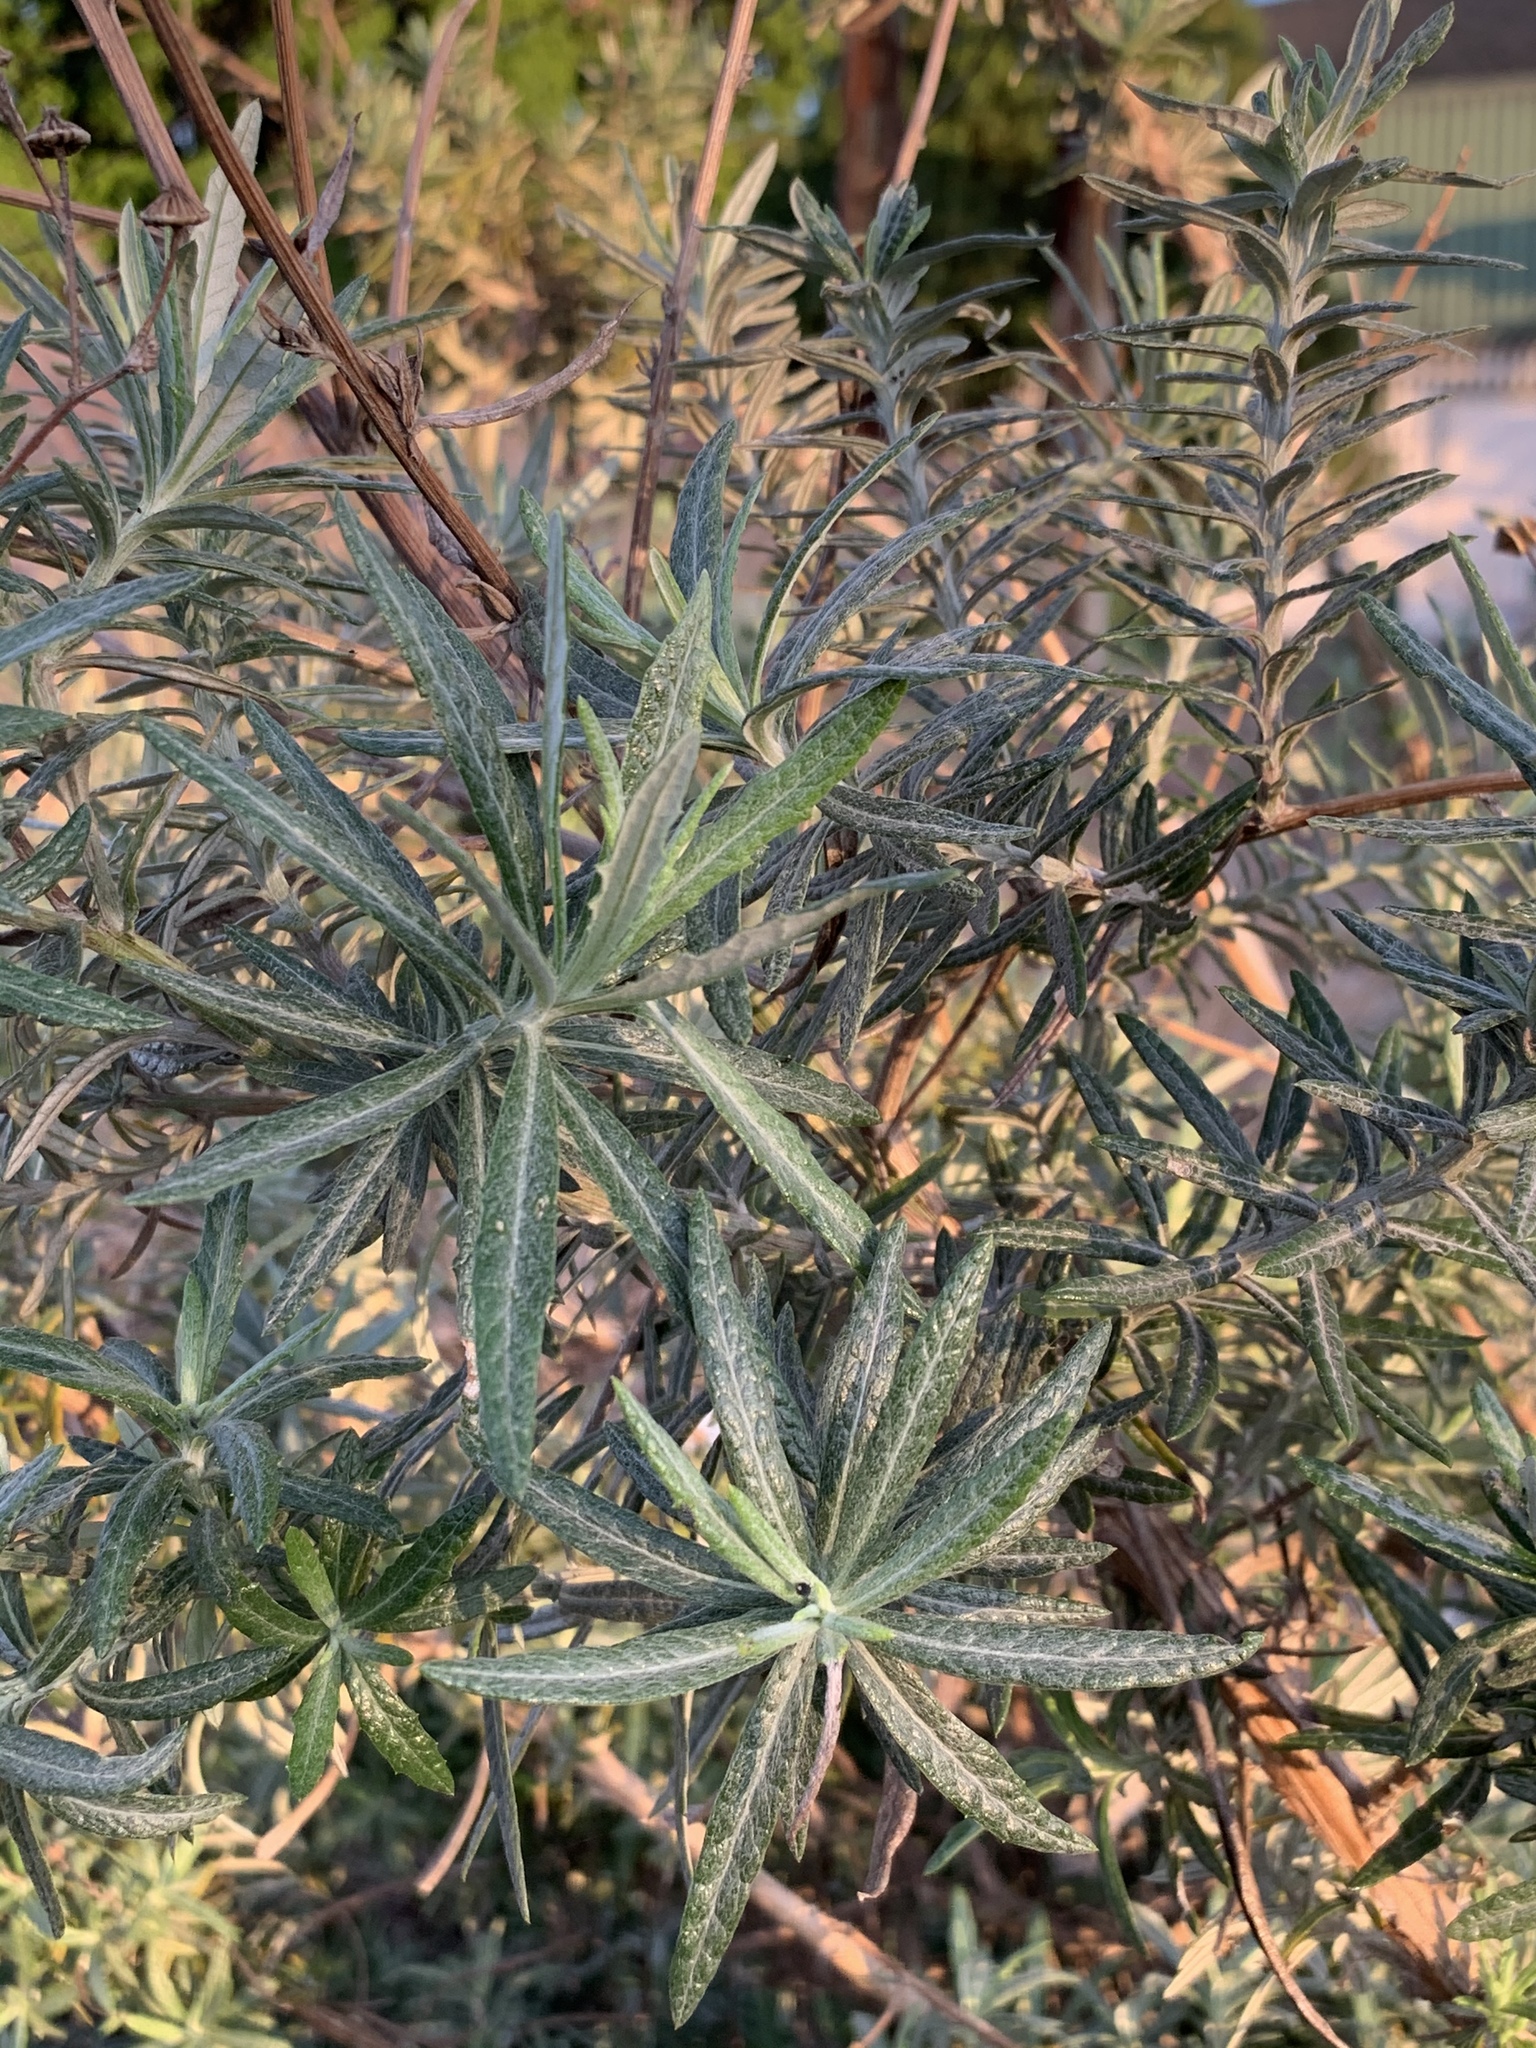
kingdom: Plantae
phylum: Tracheophyta
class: Magnoliopsida
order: Asterales
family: Asteraceae
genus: Senecio
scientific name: Senecio pterophorus
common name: Shoddy ragwort
